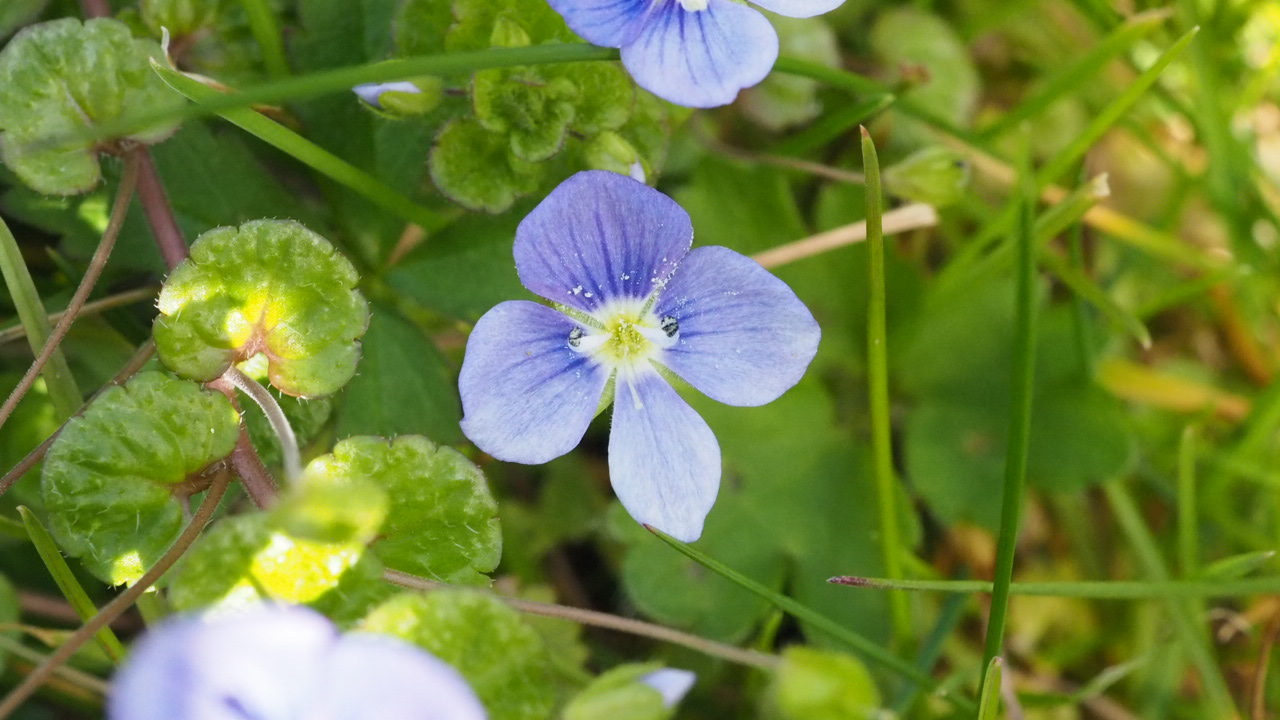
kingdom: Plantae
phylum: Tracheophyta
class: Magnoliopsida
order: Lamiales
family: Plantaginaceae
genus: Veronica
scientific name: Veronica filiformis
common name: Slender speedwell
